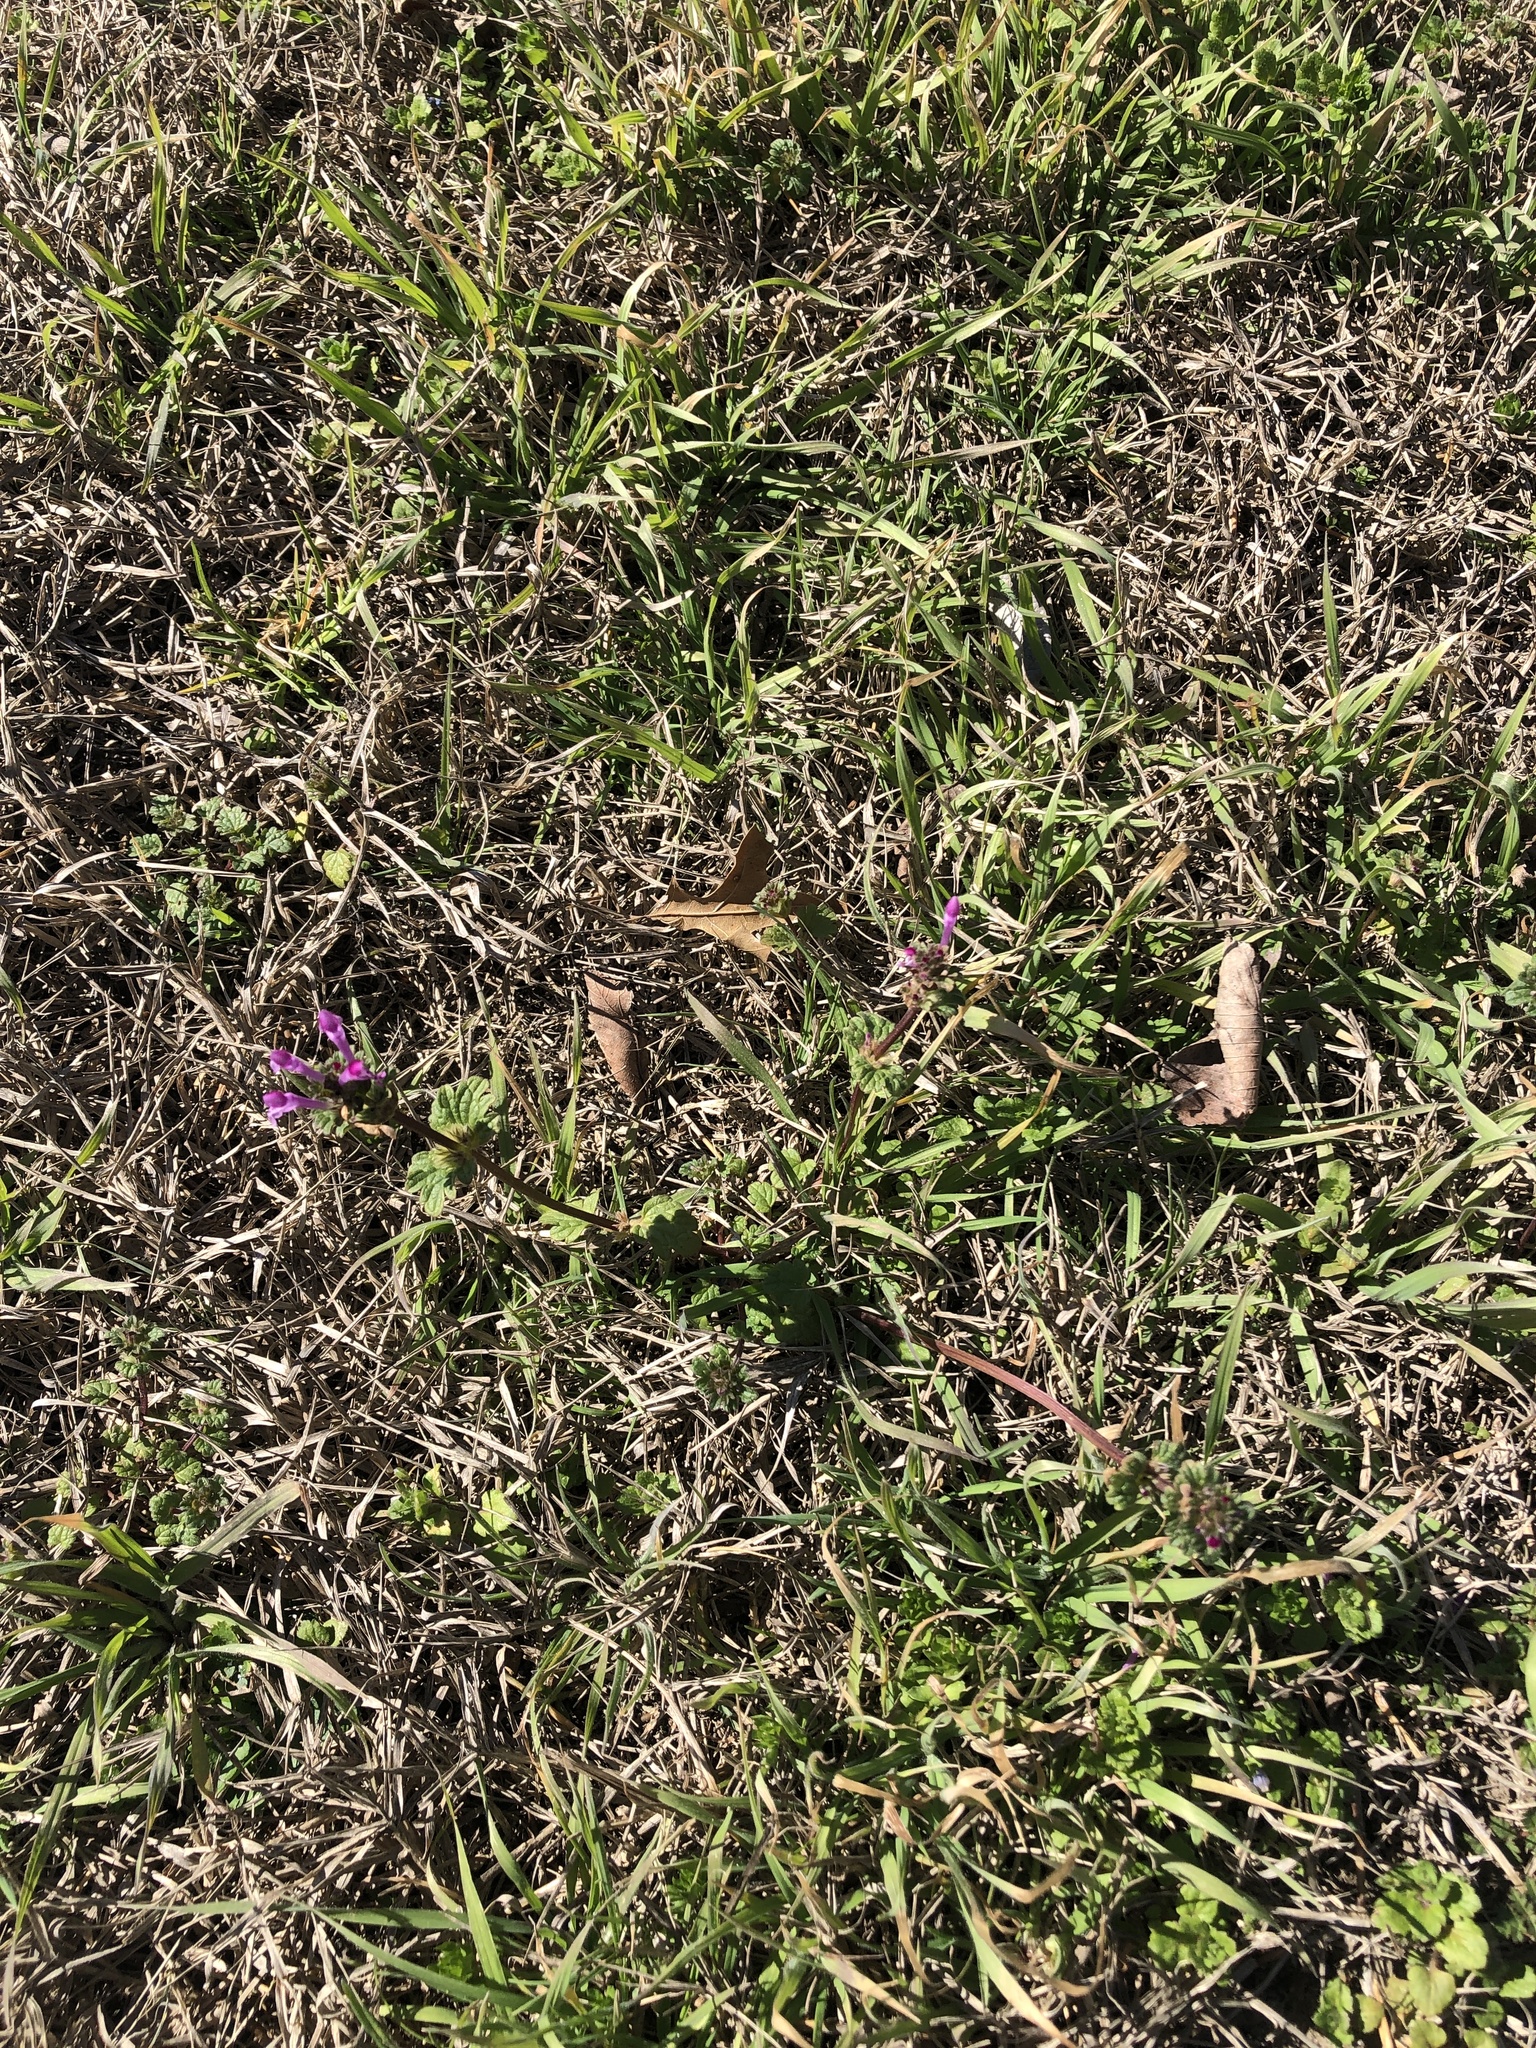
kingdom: Plantae
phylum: Tracheophyta
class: Magnoliopsida
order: Lamiales
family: Lamiaceae
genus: Lamium
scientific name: Lamium amplexicaule
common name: Henbit dead-nettle
